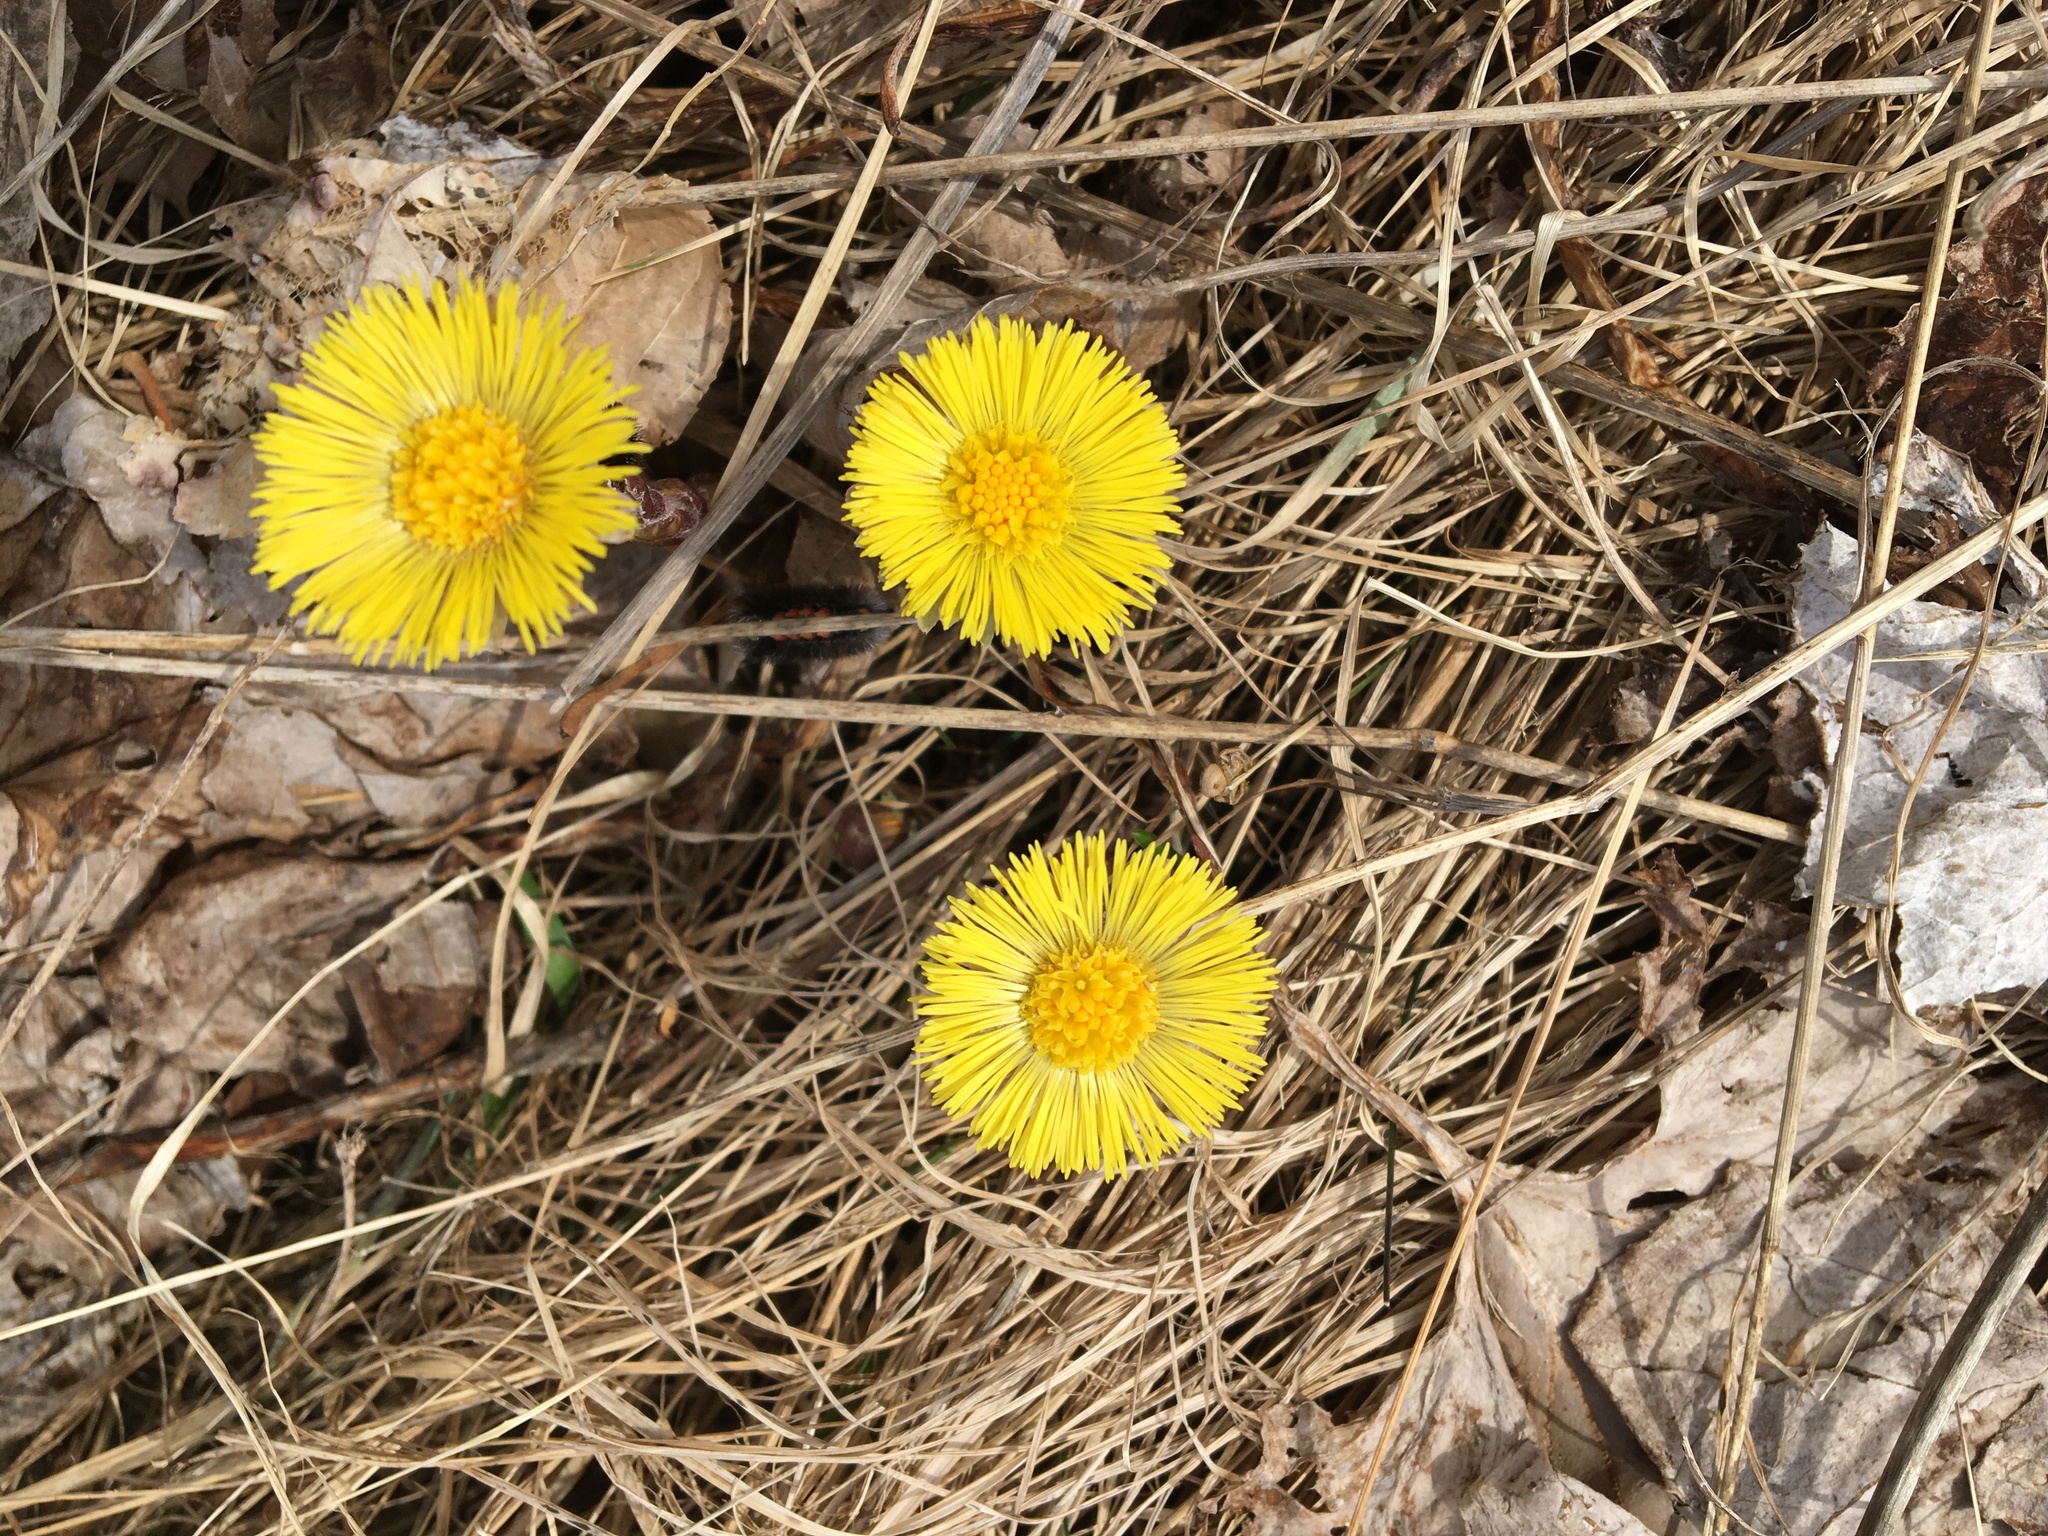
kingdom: Plantae
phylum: Tracheophyta
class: Magnoliopsida
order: Asterales
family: Asteraceae
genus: Tussilago
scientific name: Tussilago farfara
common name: Coltsfoot
